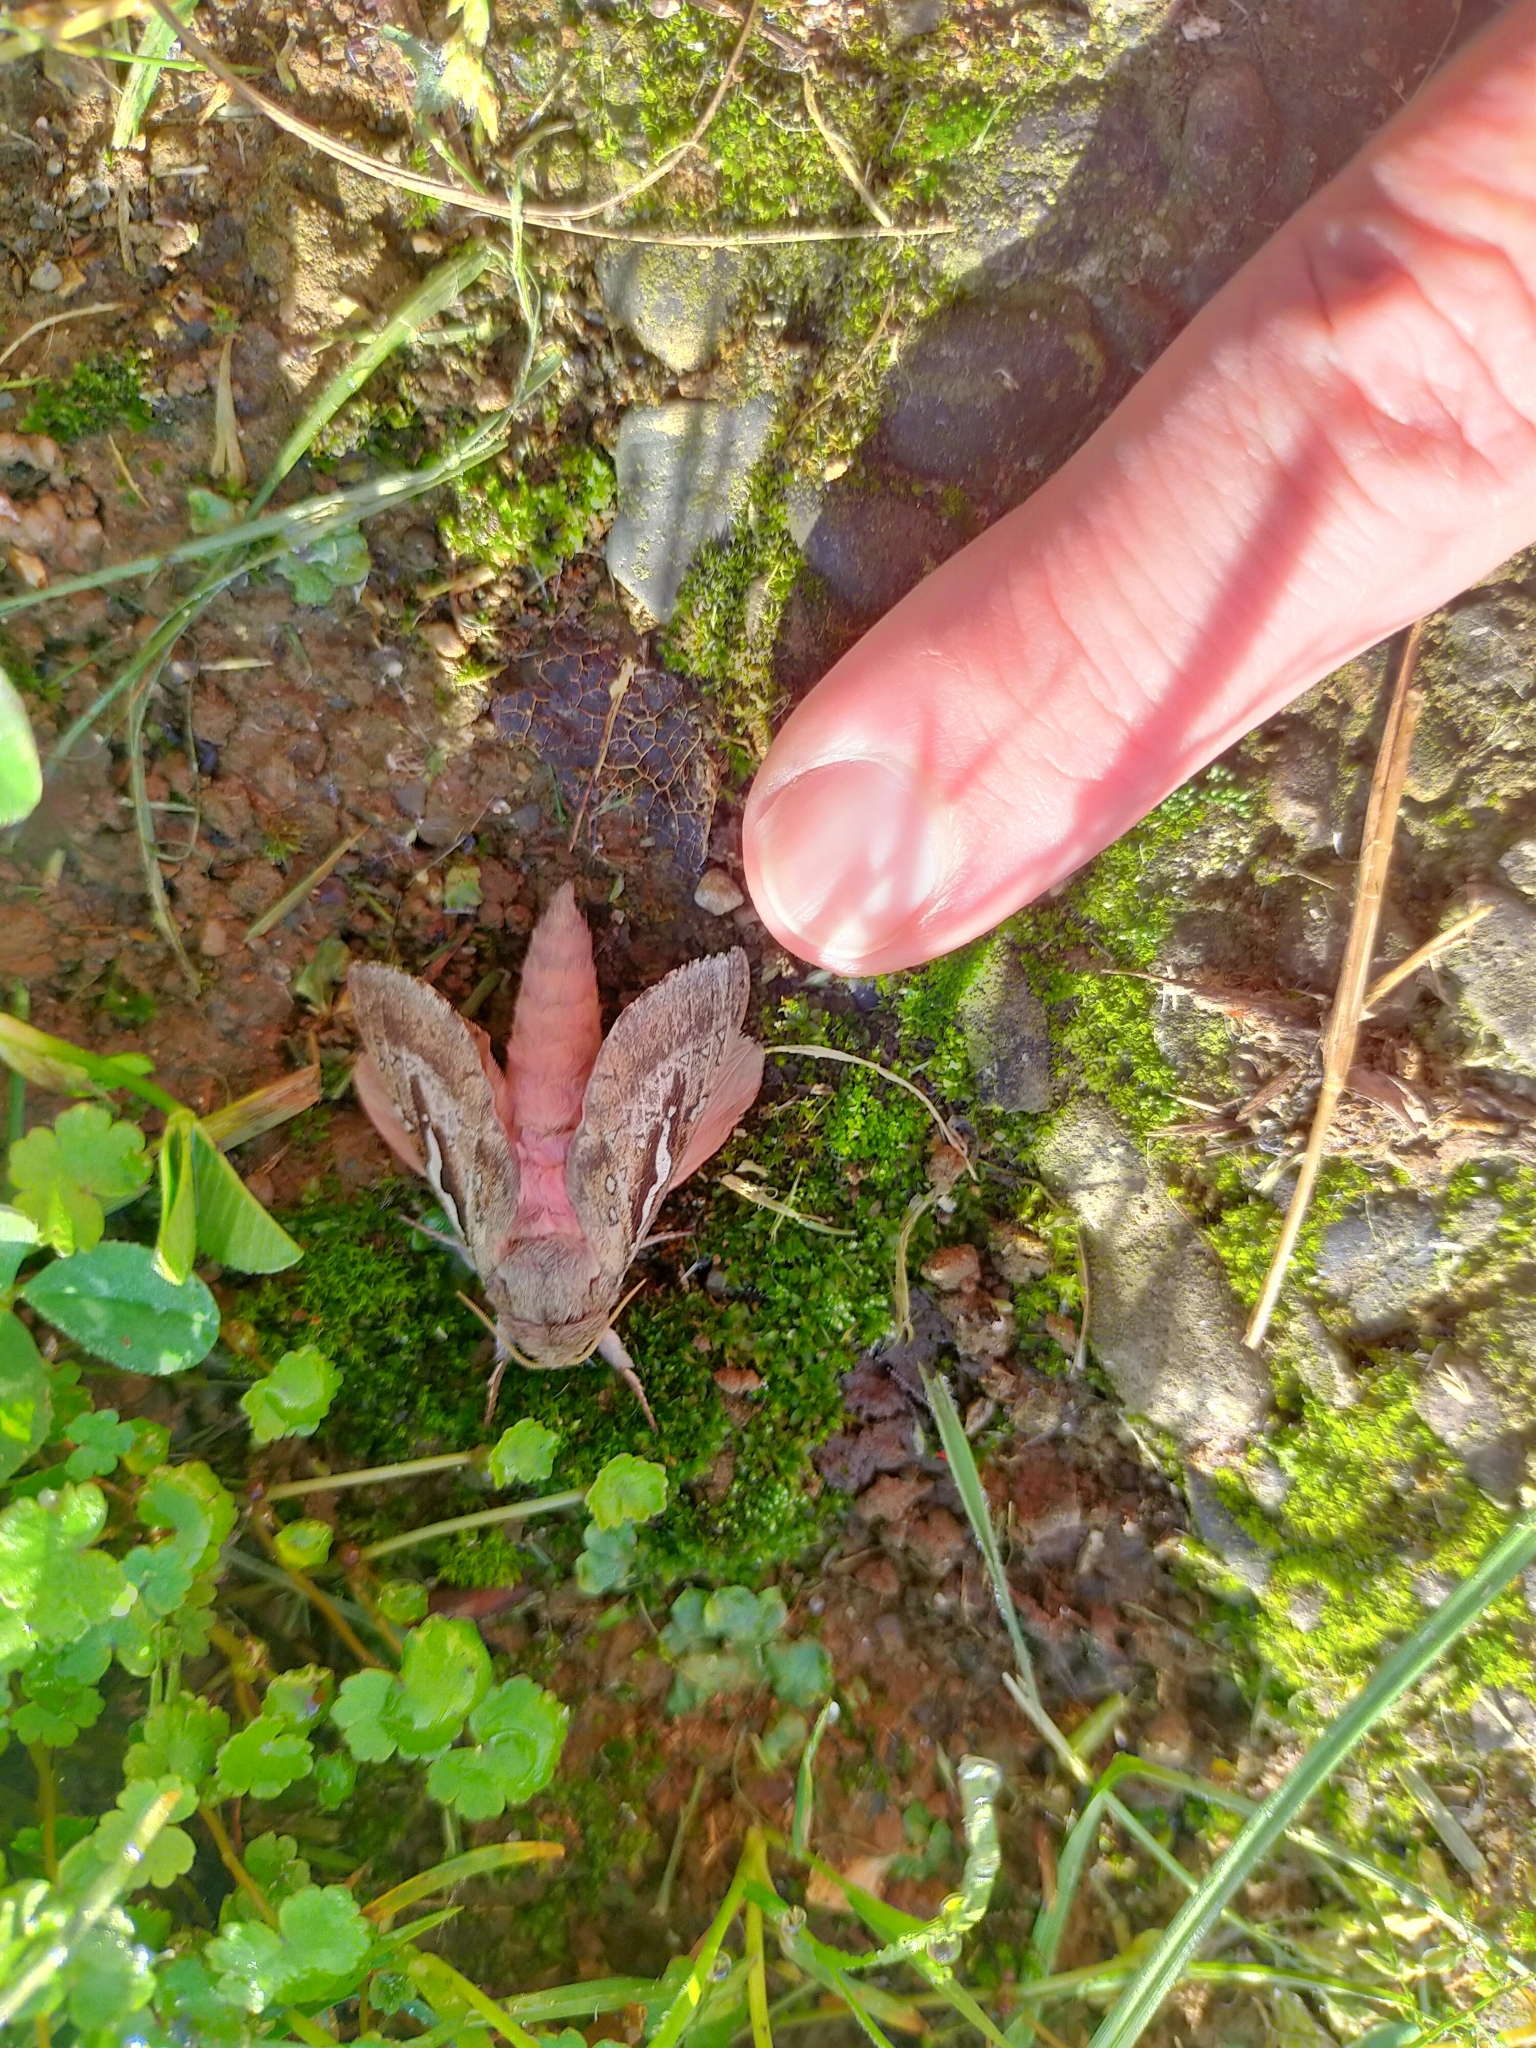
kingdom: Animalia
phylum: Arthropoda
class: Insecta
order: Lepidoptera
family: Hepialidae
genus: Wiseana
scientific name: Wiseana signata
